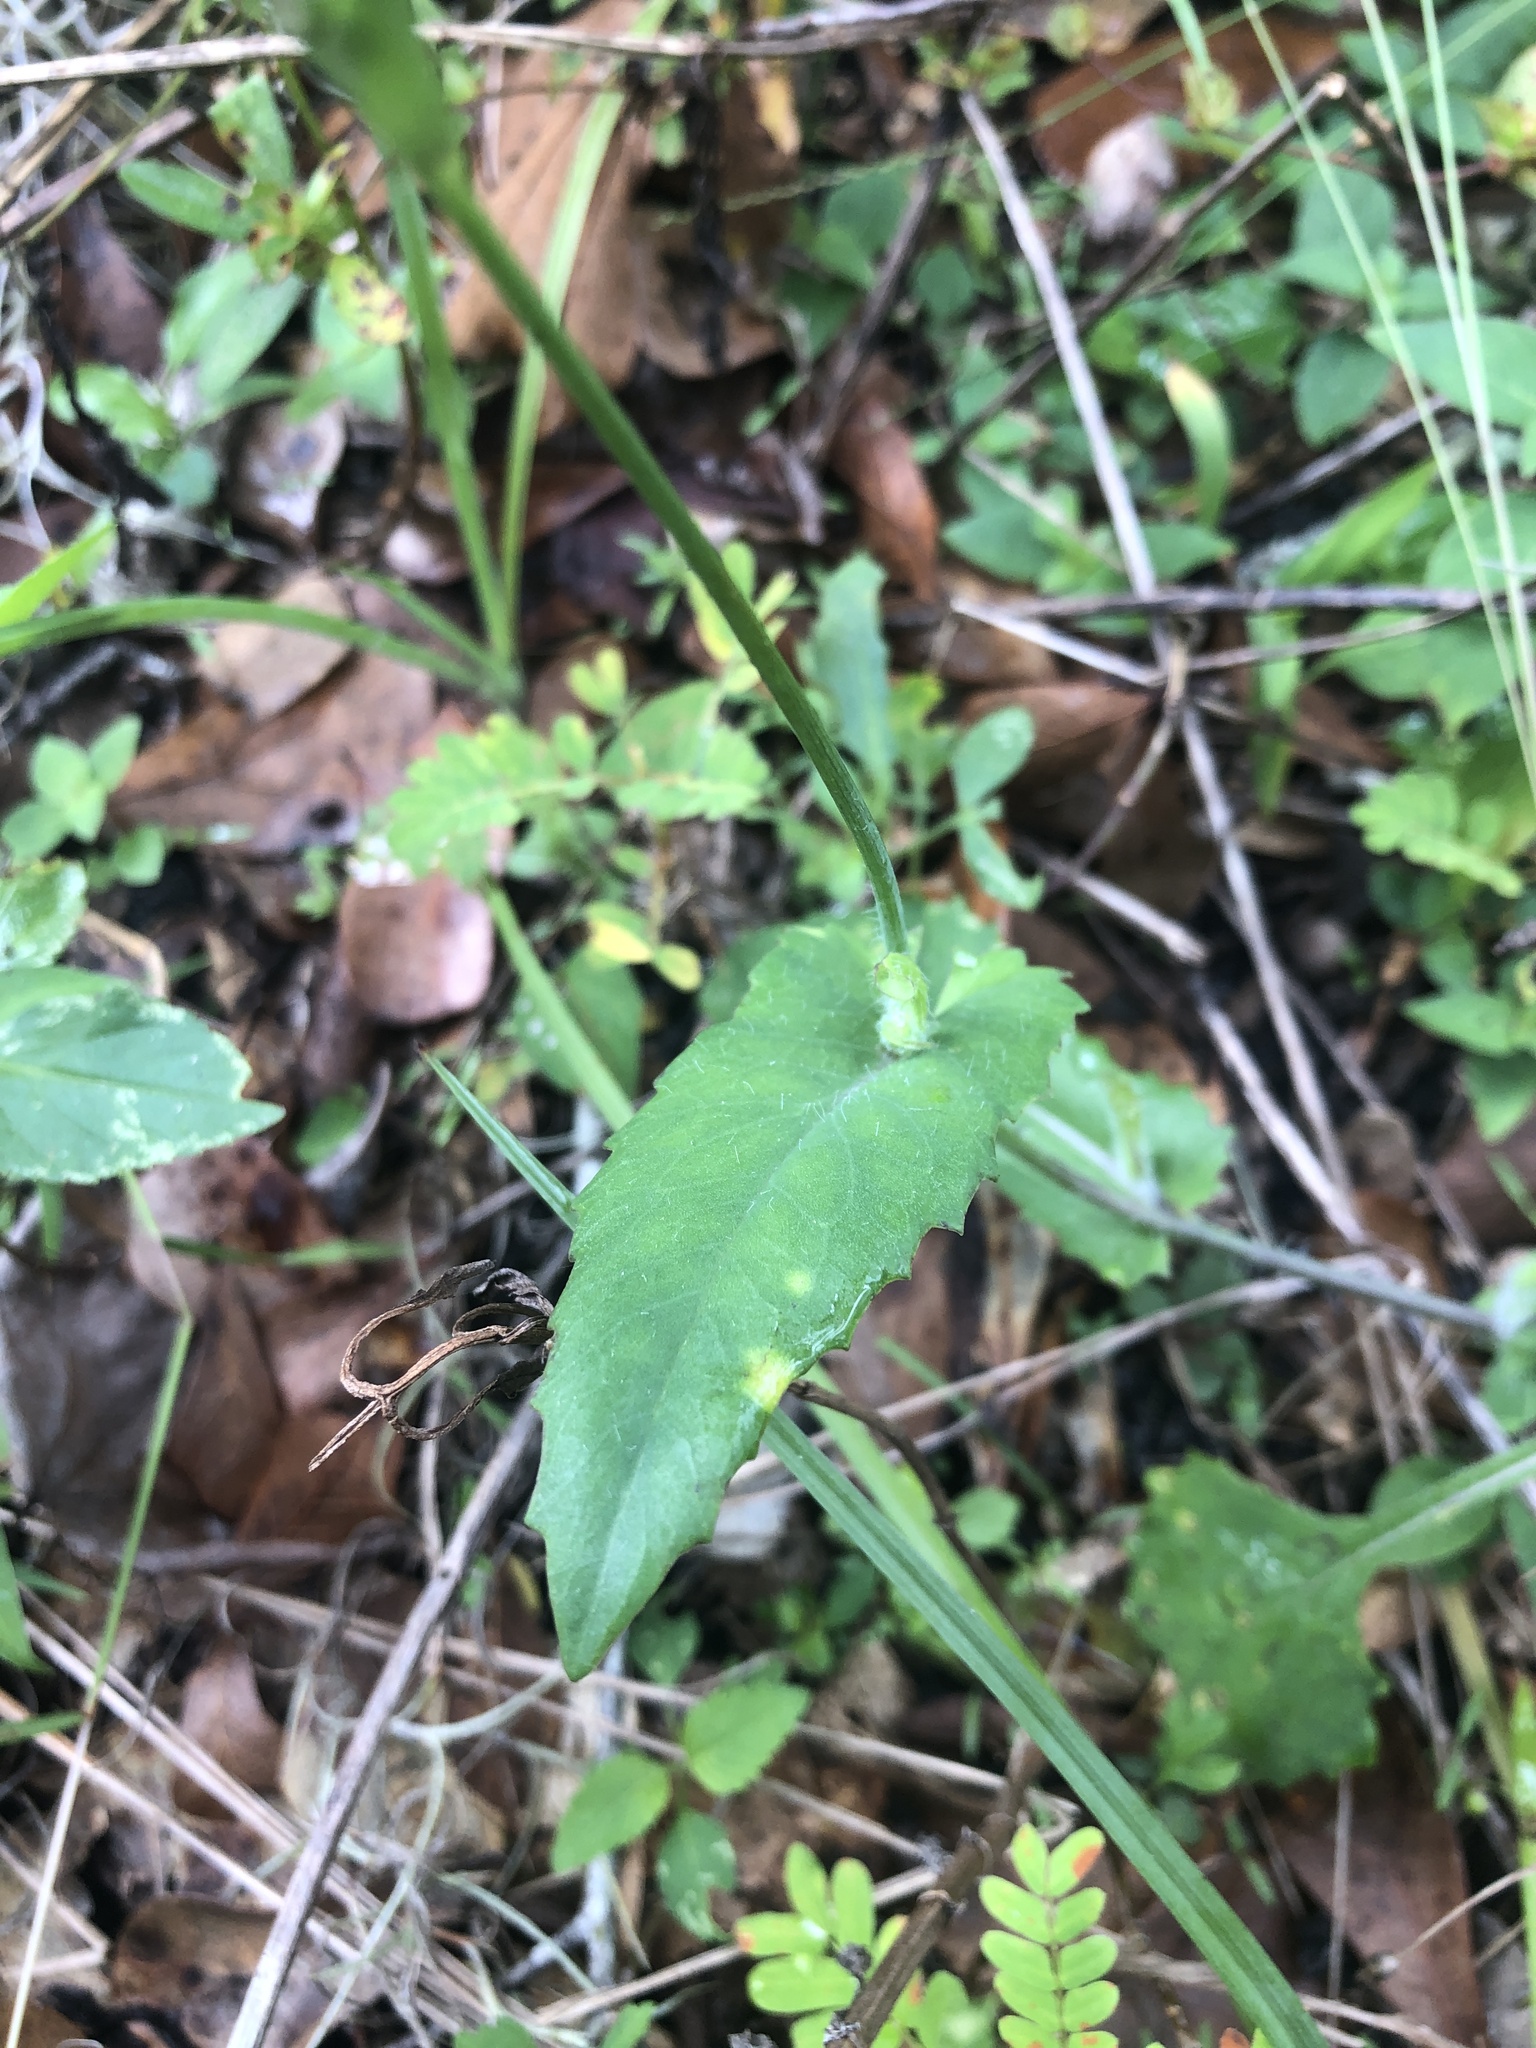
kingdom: Plantae
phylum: Tracheophyta
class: Magnoliopsida
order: Asterales
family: Asteraceae
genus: Emilia
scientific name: Emilia fosbergii
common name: Florida tasselflower
